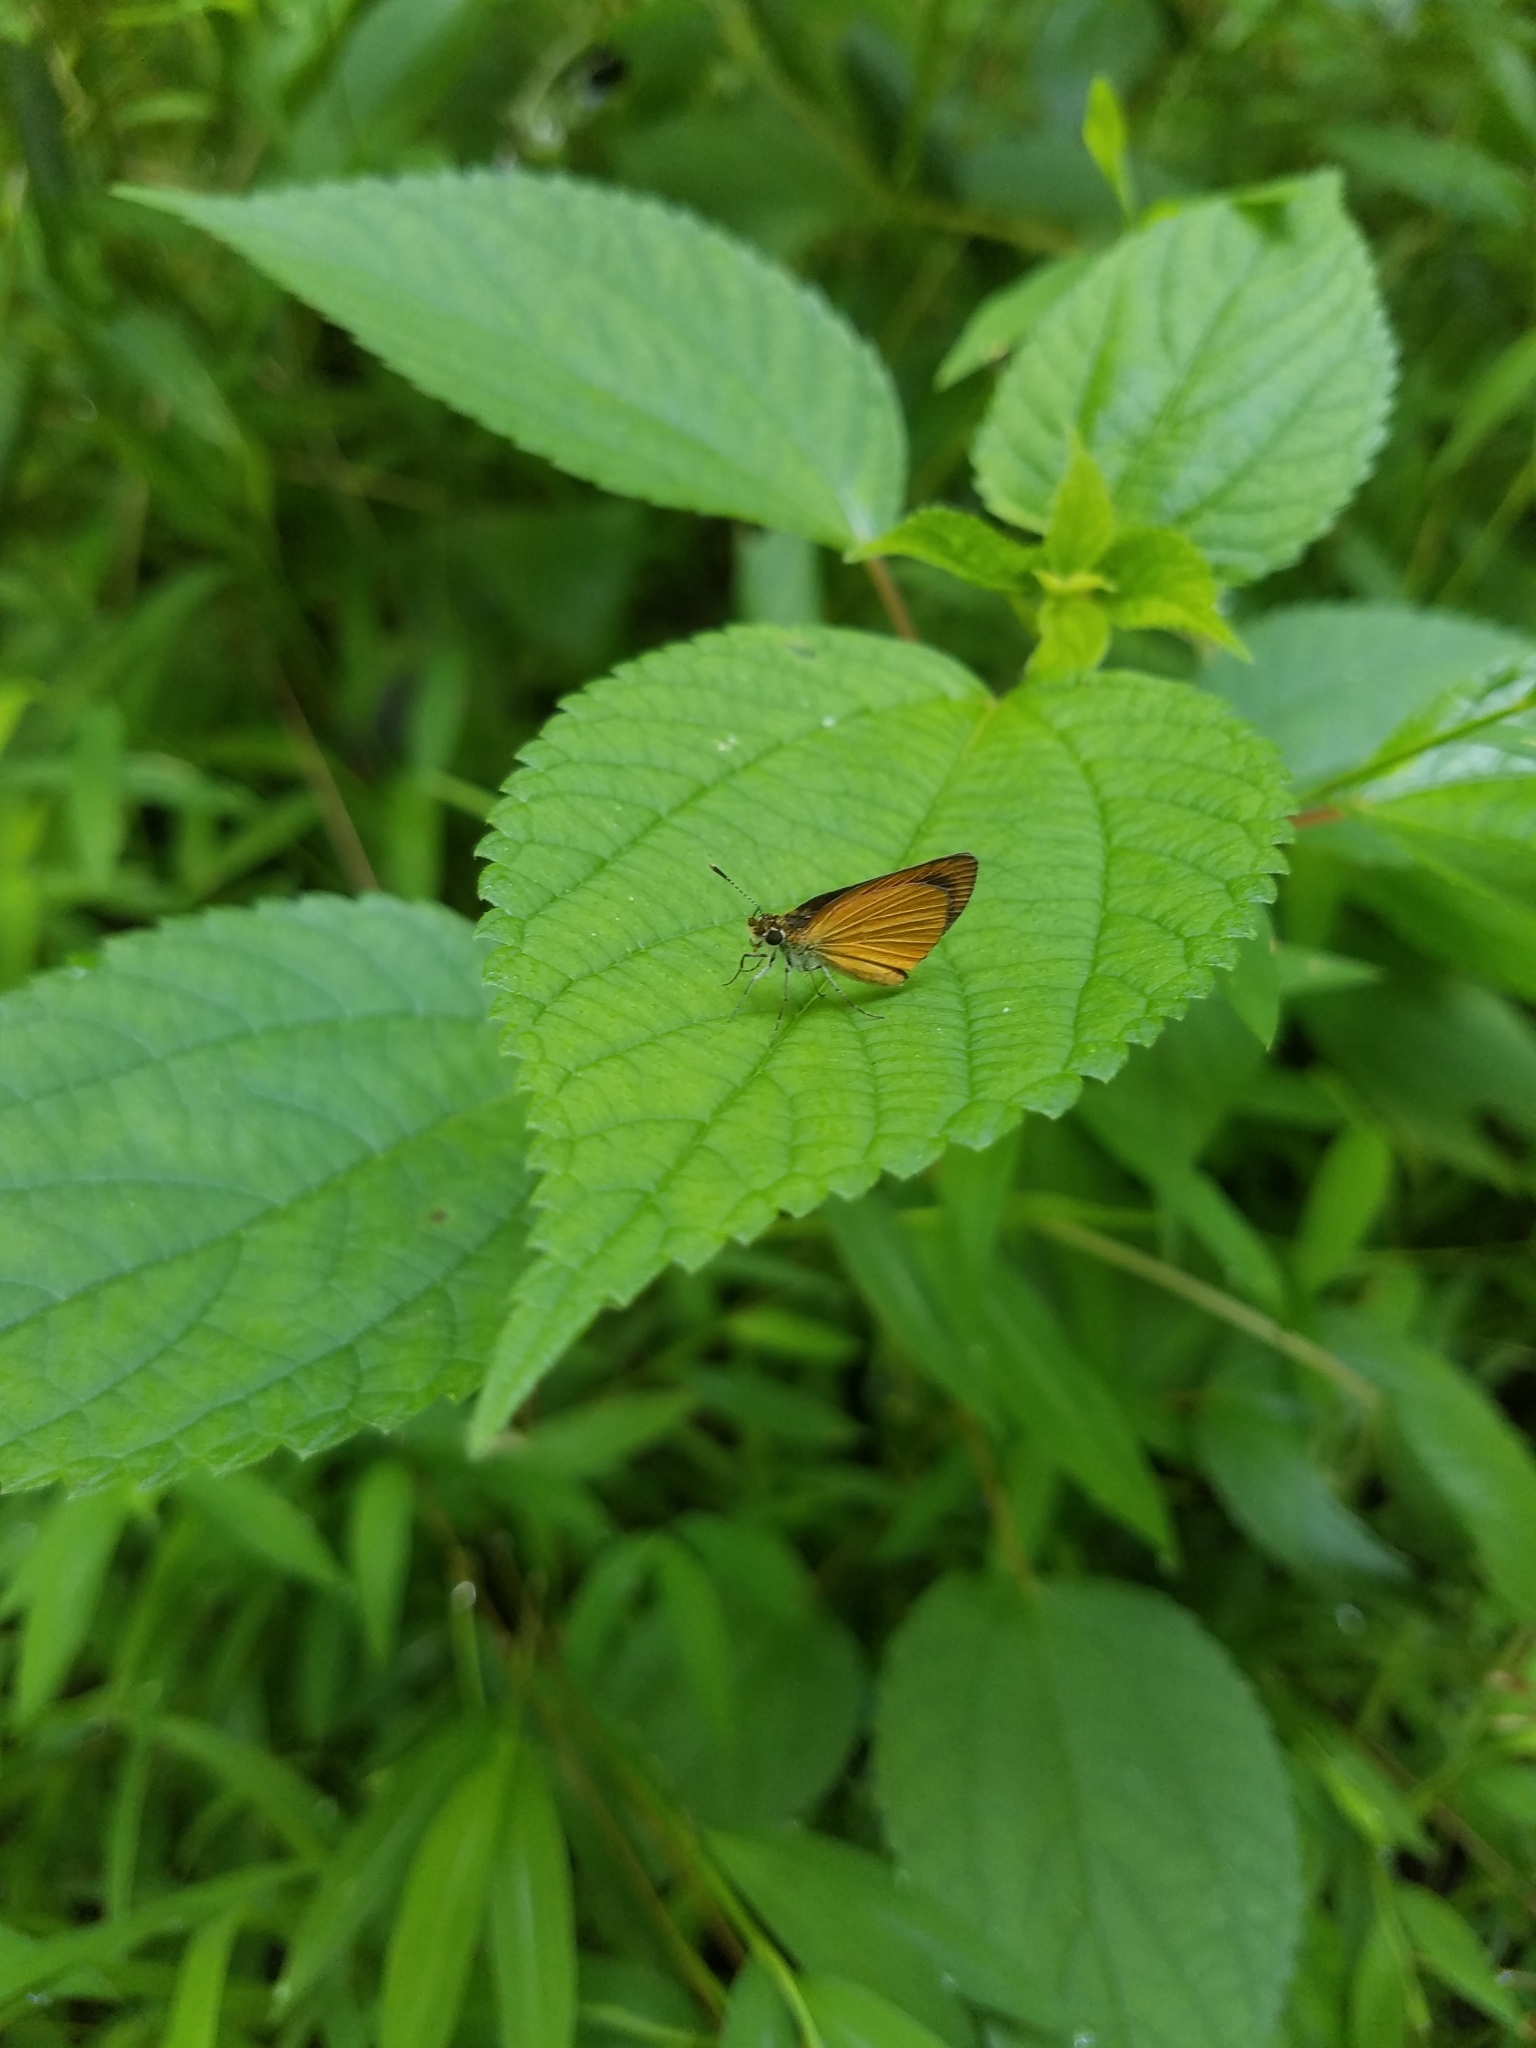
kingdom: Animalia
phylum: Arthropoda
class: Insecta
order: Lepidoptera
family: Hesperiidae
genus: Ancyloxypha
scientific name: Ancyloxypha numitor
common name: Least skipper
